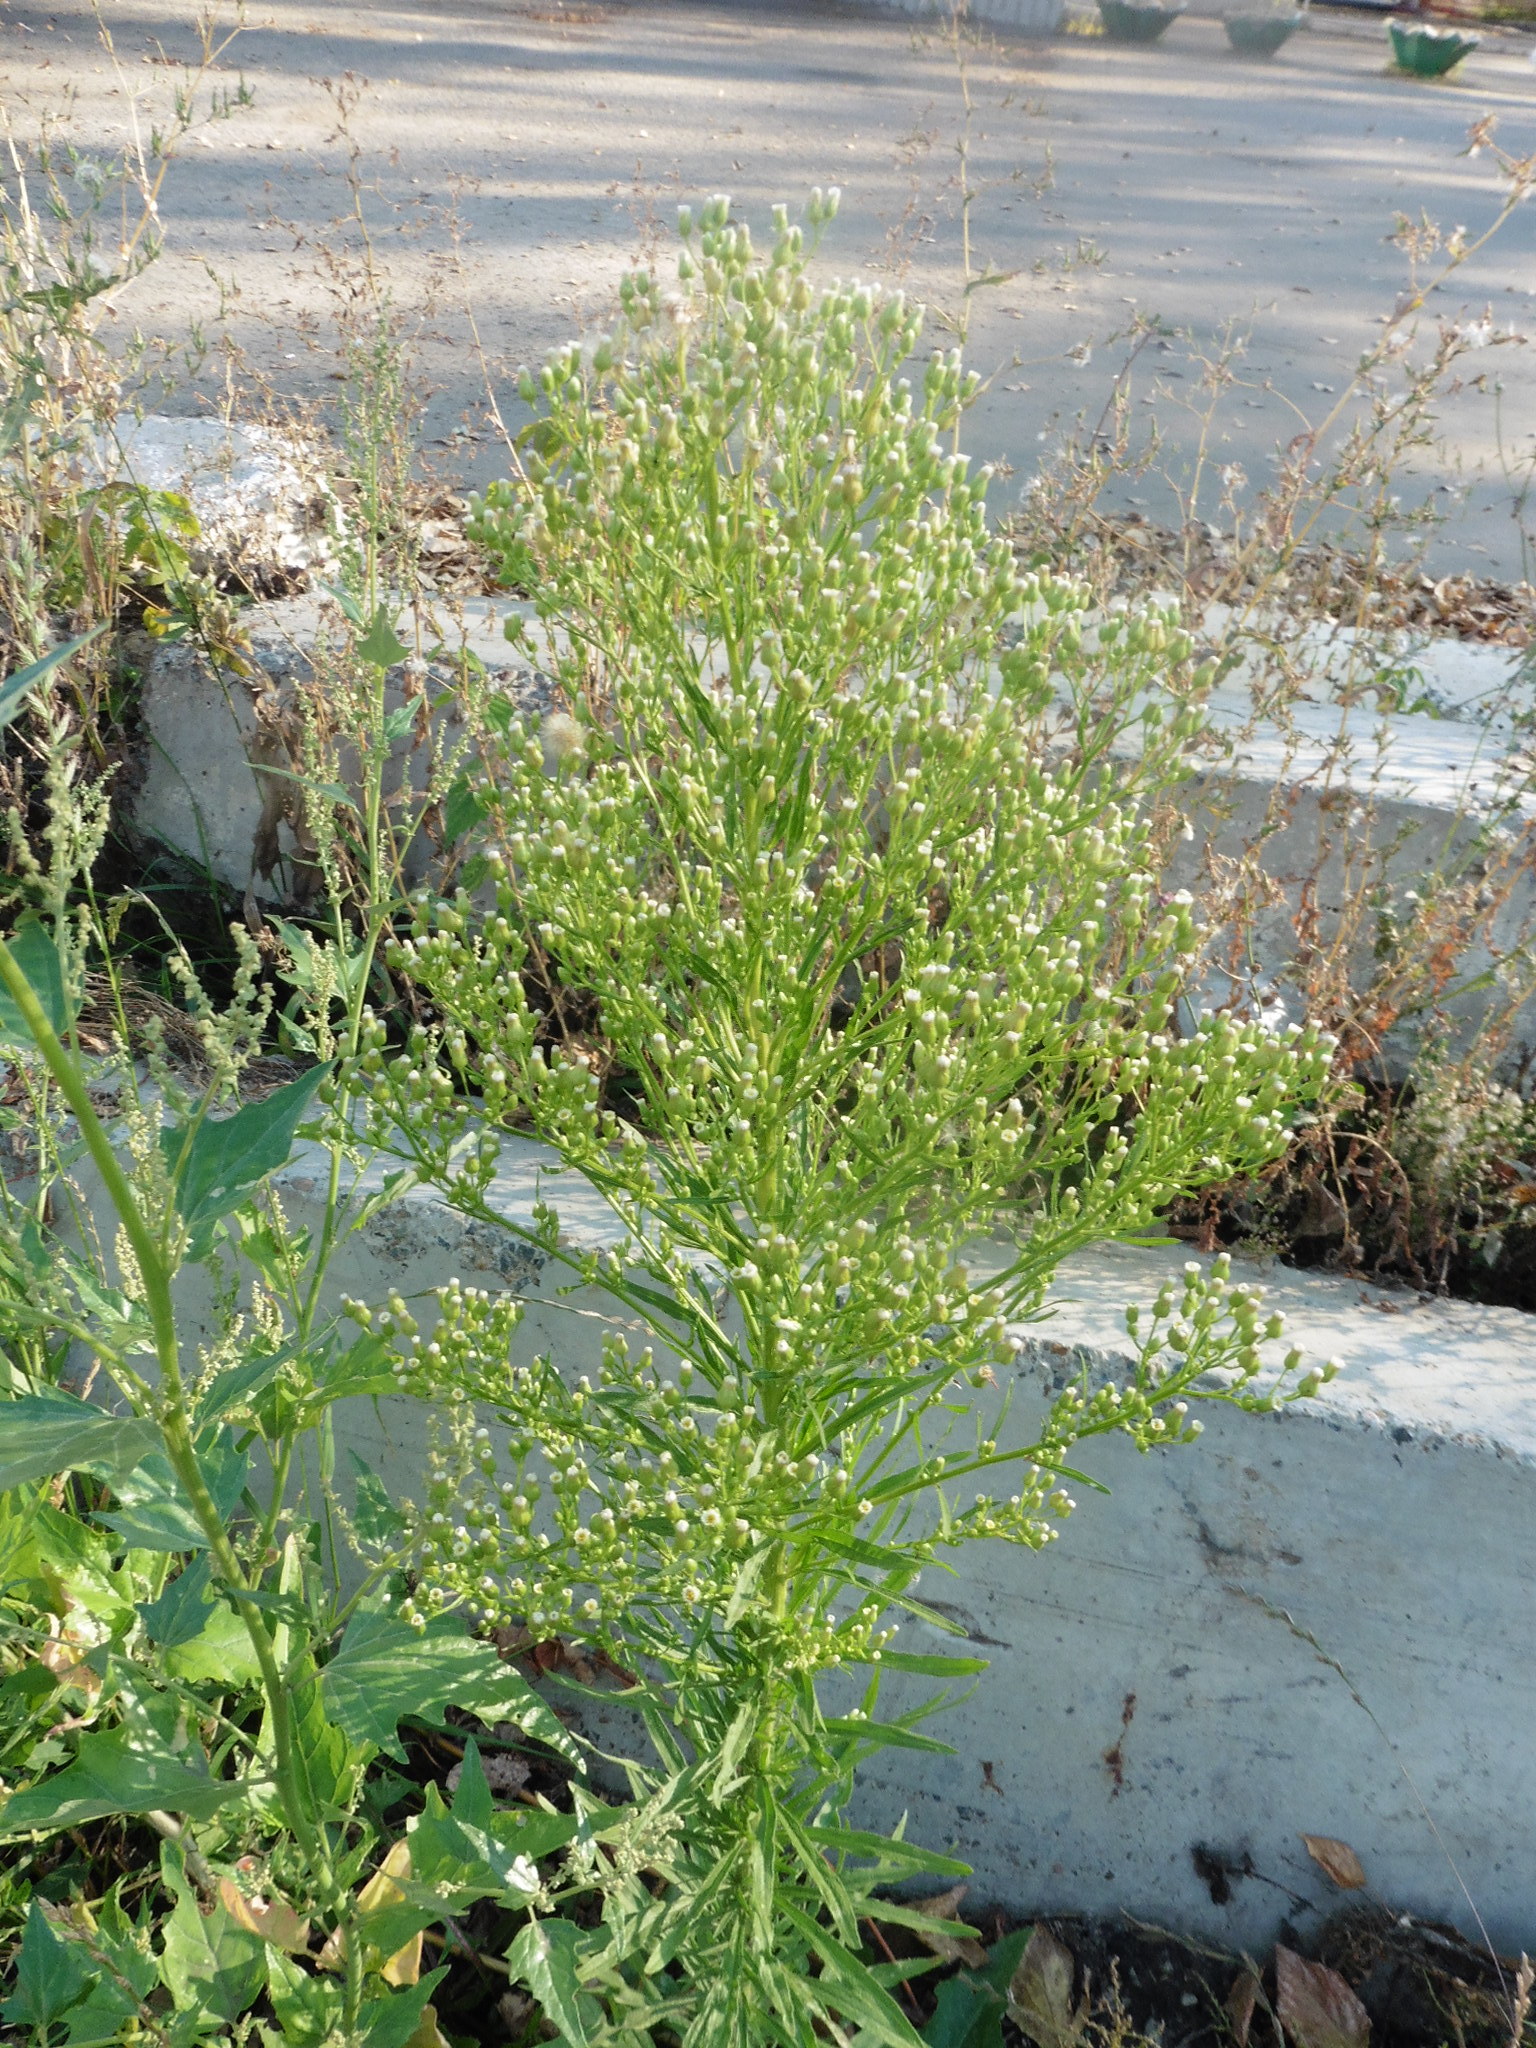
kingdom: Plantae
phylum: Tracheophyta
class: Magnoliopsida
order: Asterales
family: Asteraceae
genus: Erigeron
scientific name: Erigeron canadensis
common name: Canadian fleabane
